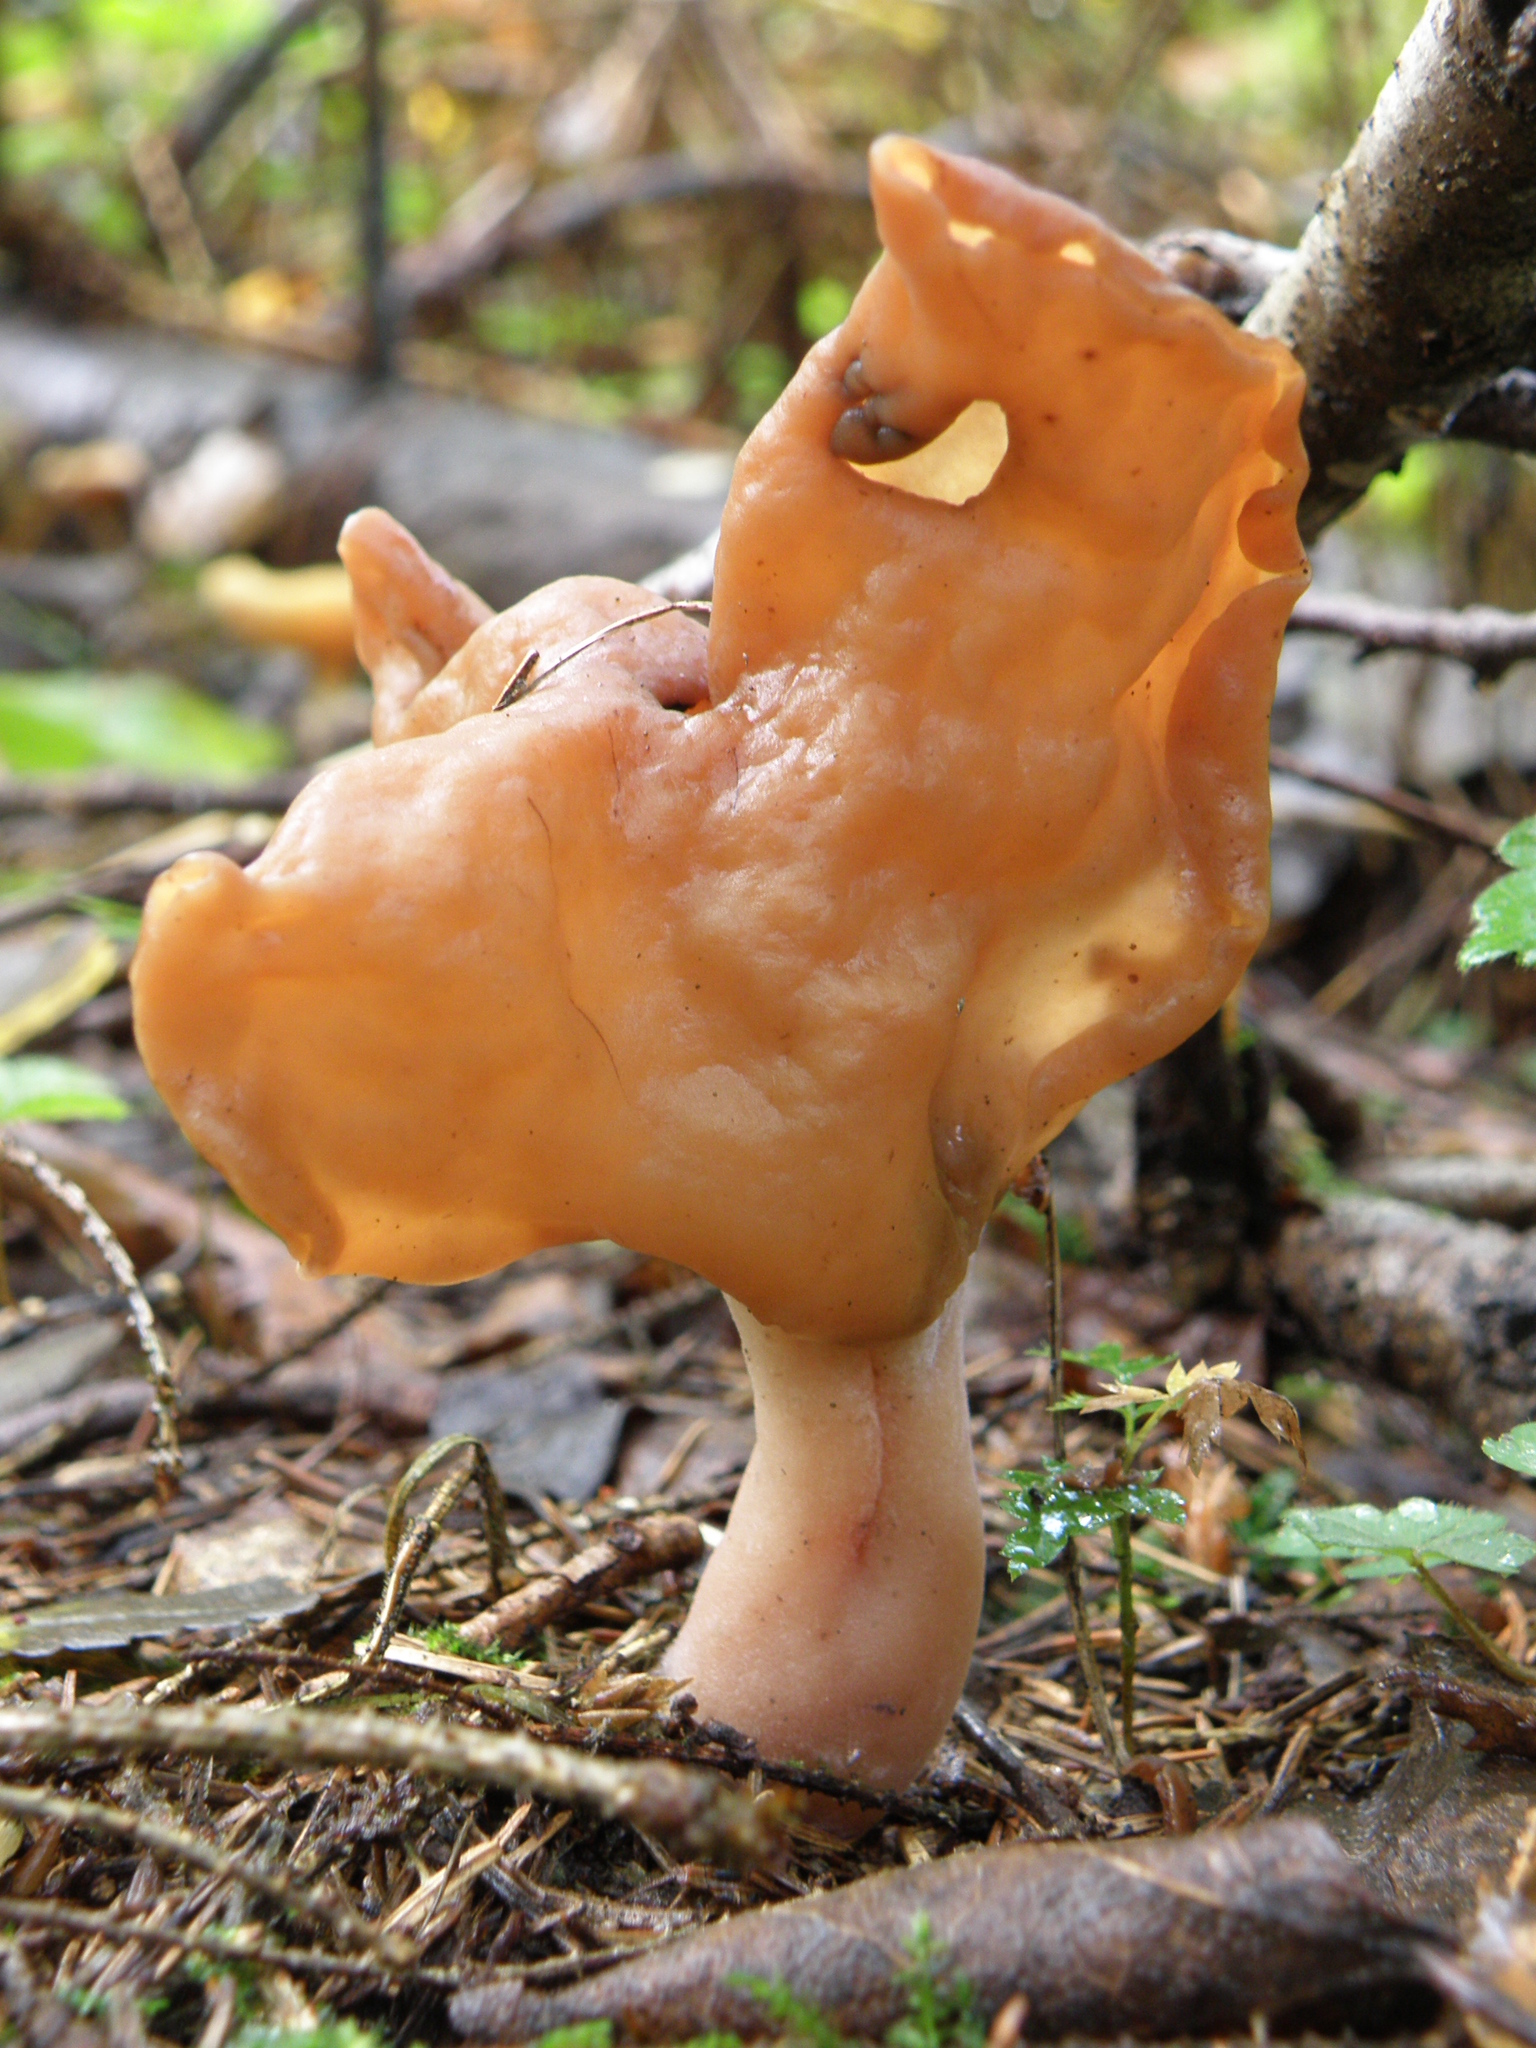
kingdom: Fungi
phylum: Ascomycota
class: Pezizomycetes
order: Pezizales
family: Discinaceae
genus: Gyromitra
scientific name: Gyromitra infula
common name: Pouched false morel
